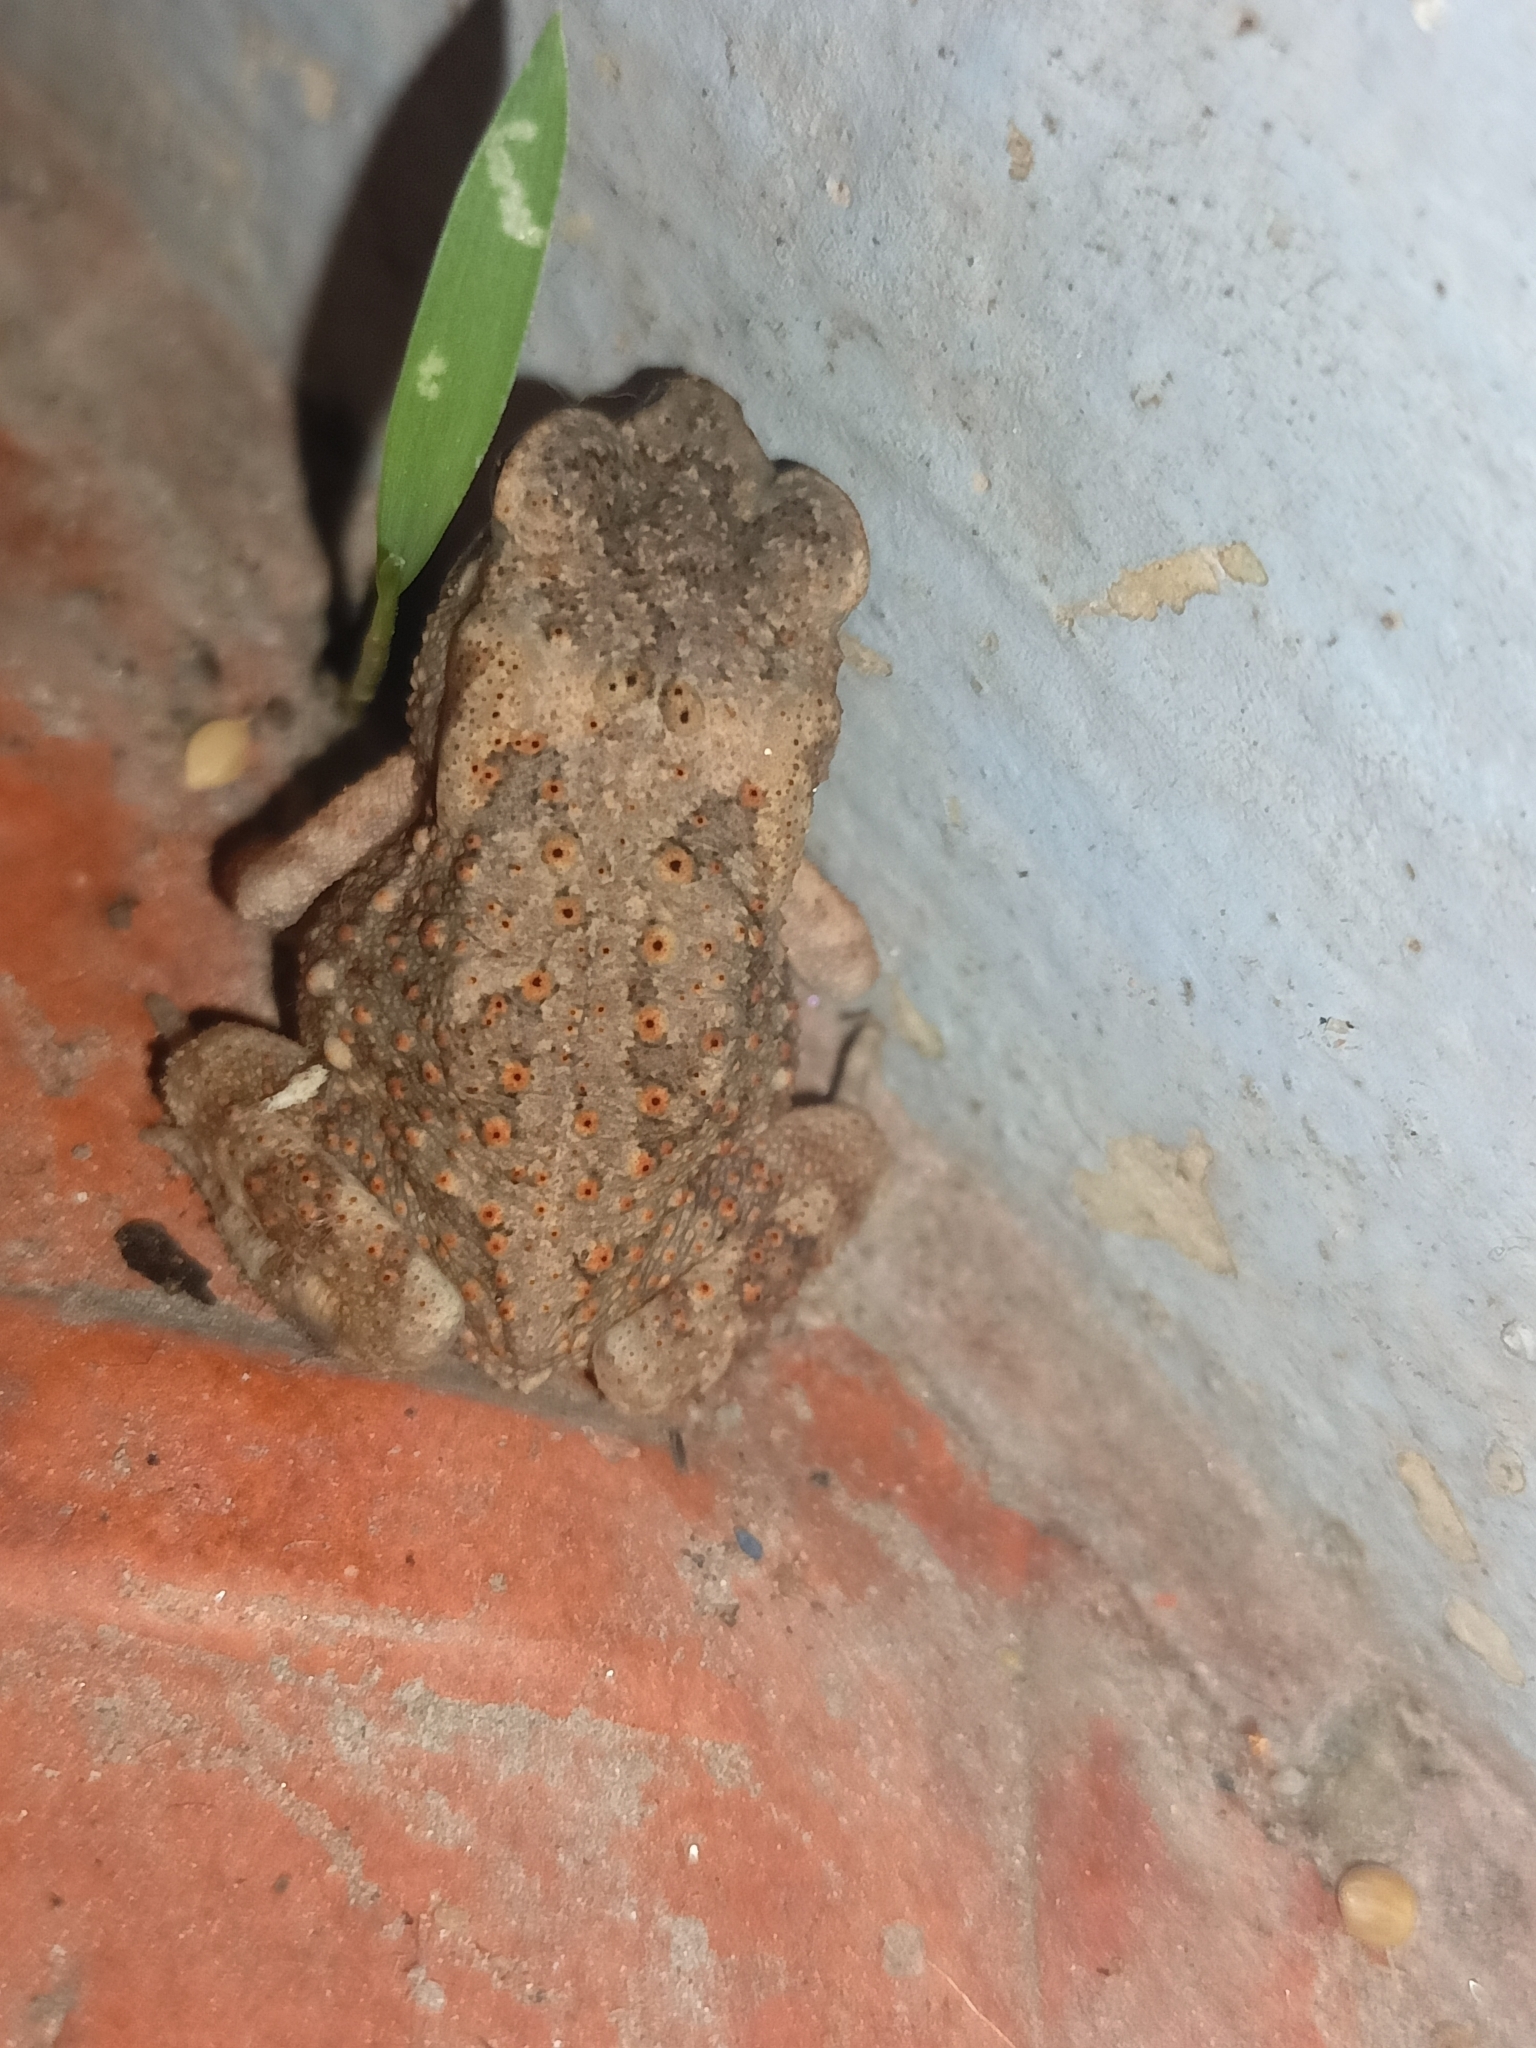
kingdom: Animalia
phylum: Chordata
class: Amphibia
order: Anura
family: Bufonidae
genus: Duttaphrynus
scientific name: Duttaphrynus melanostictus
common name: Common sunda toad
